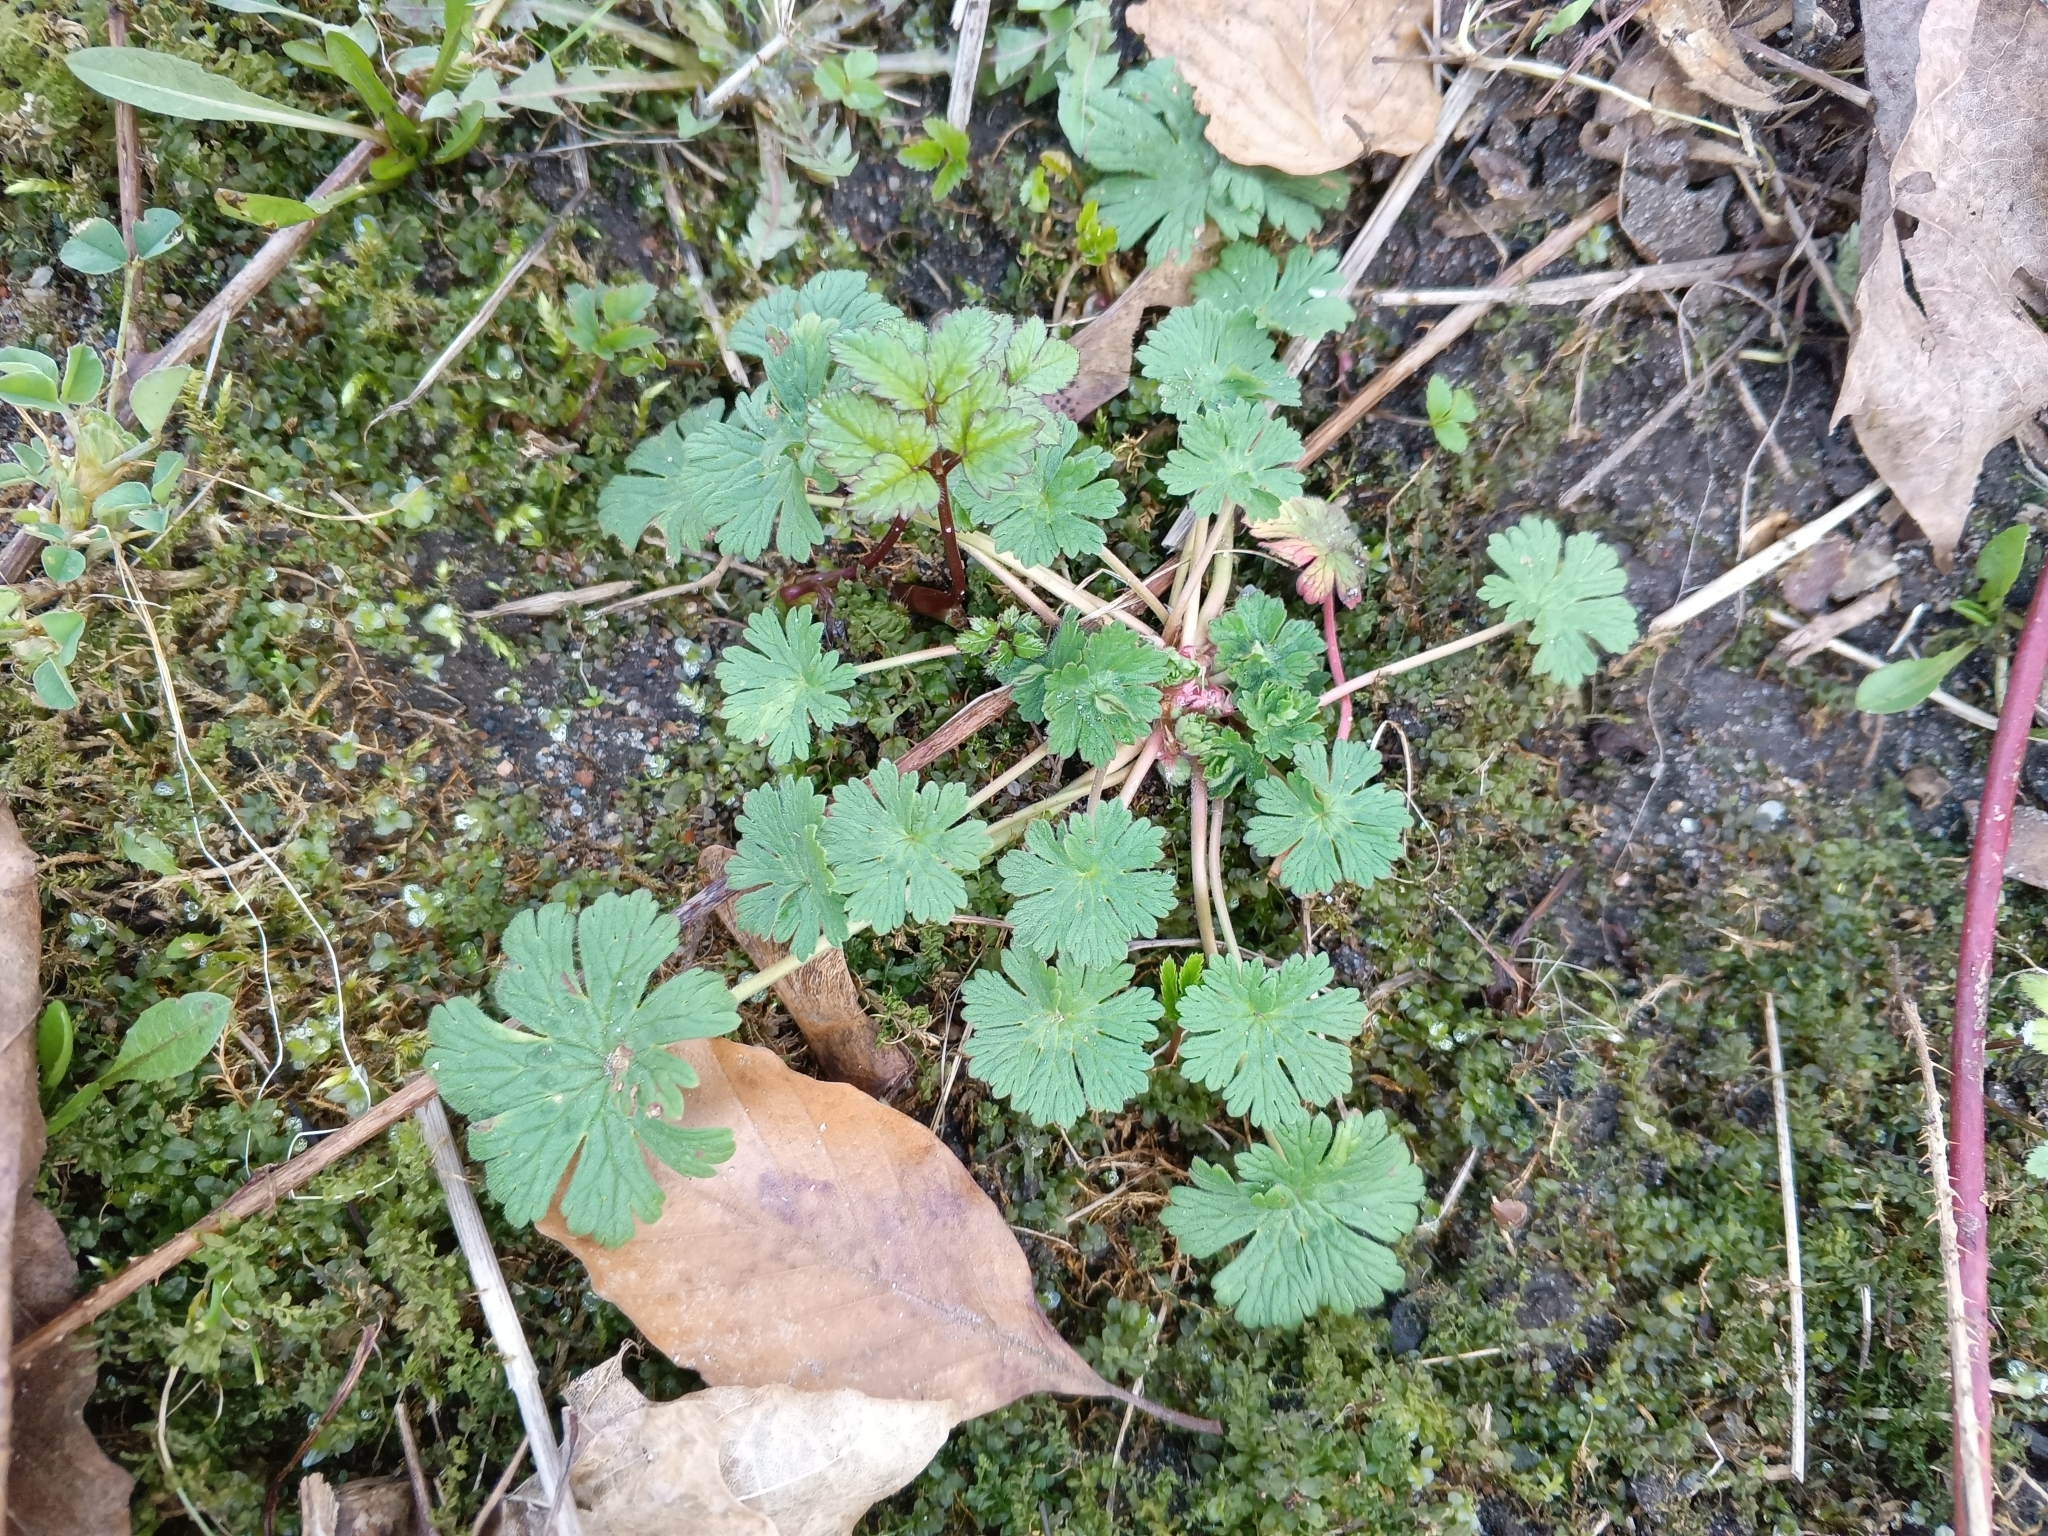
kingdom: Plantae
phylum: Tracheophyta
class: Magnoliopsida
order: Geraniales
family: Geraniaceae
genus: Geranium
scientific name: Geranium pusillum
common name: Small geranium
